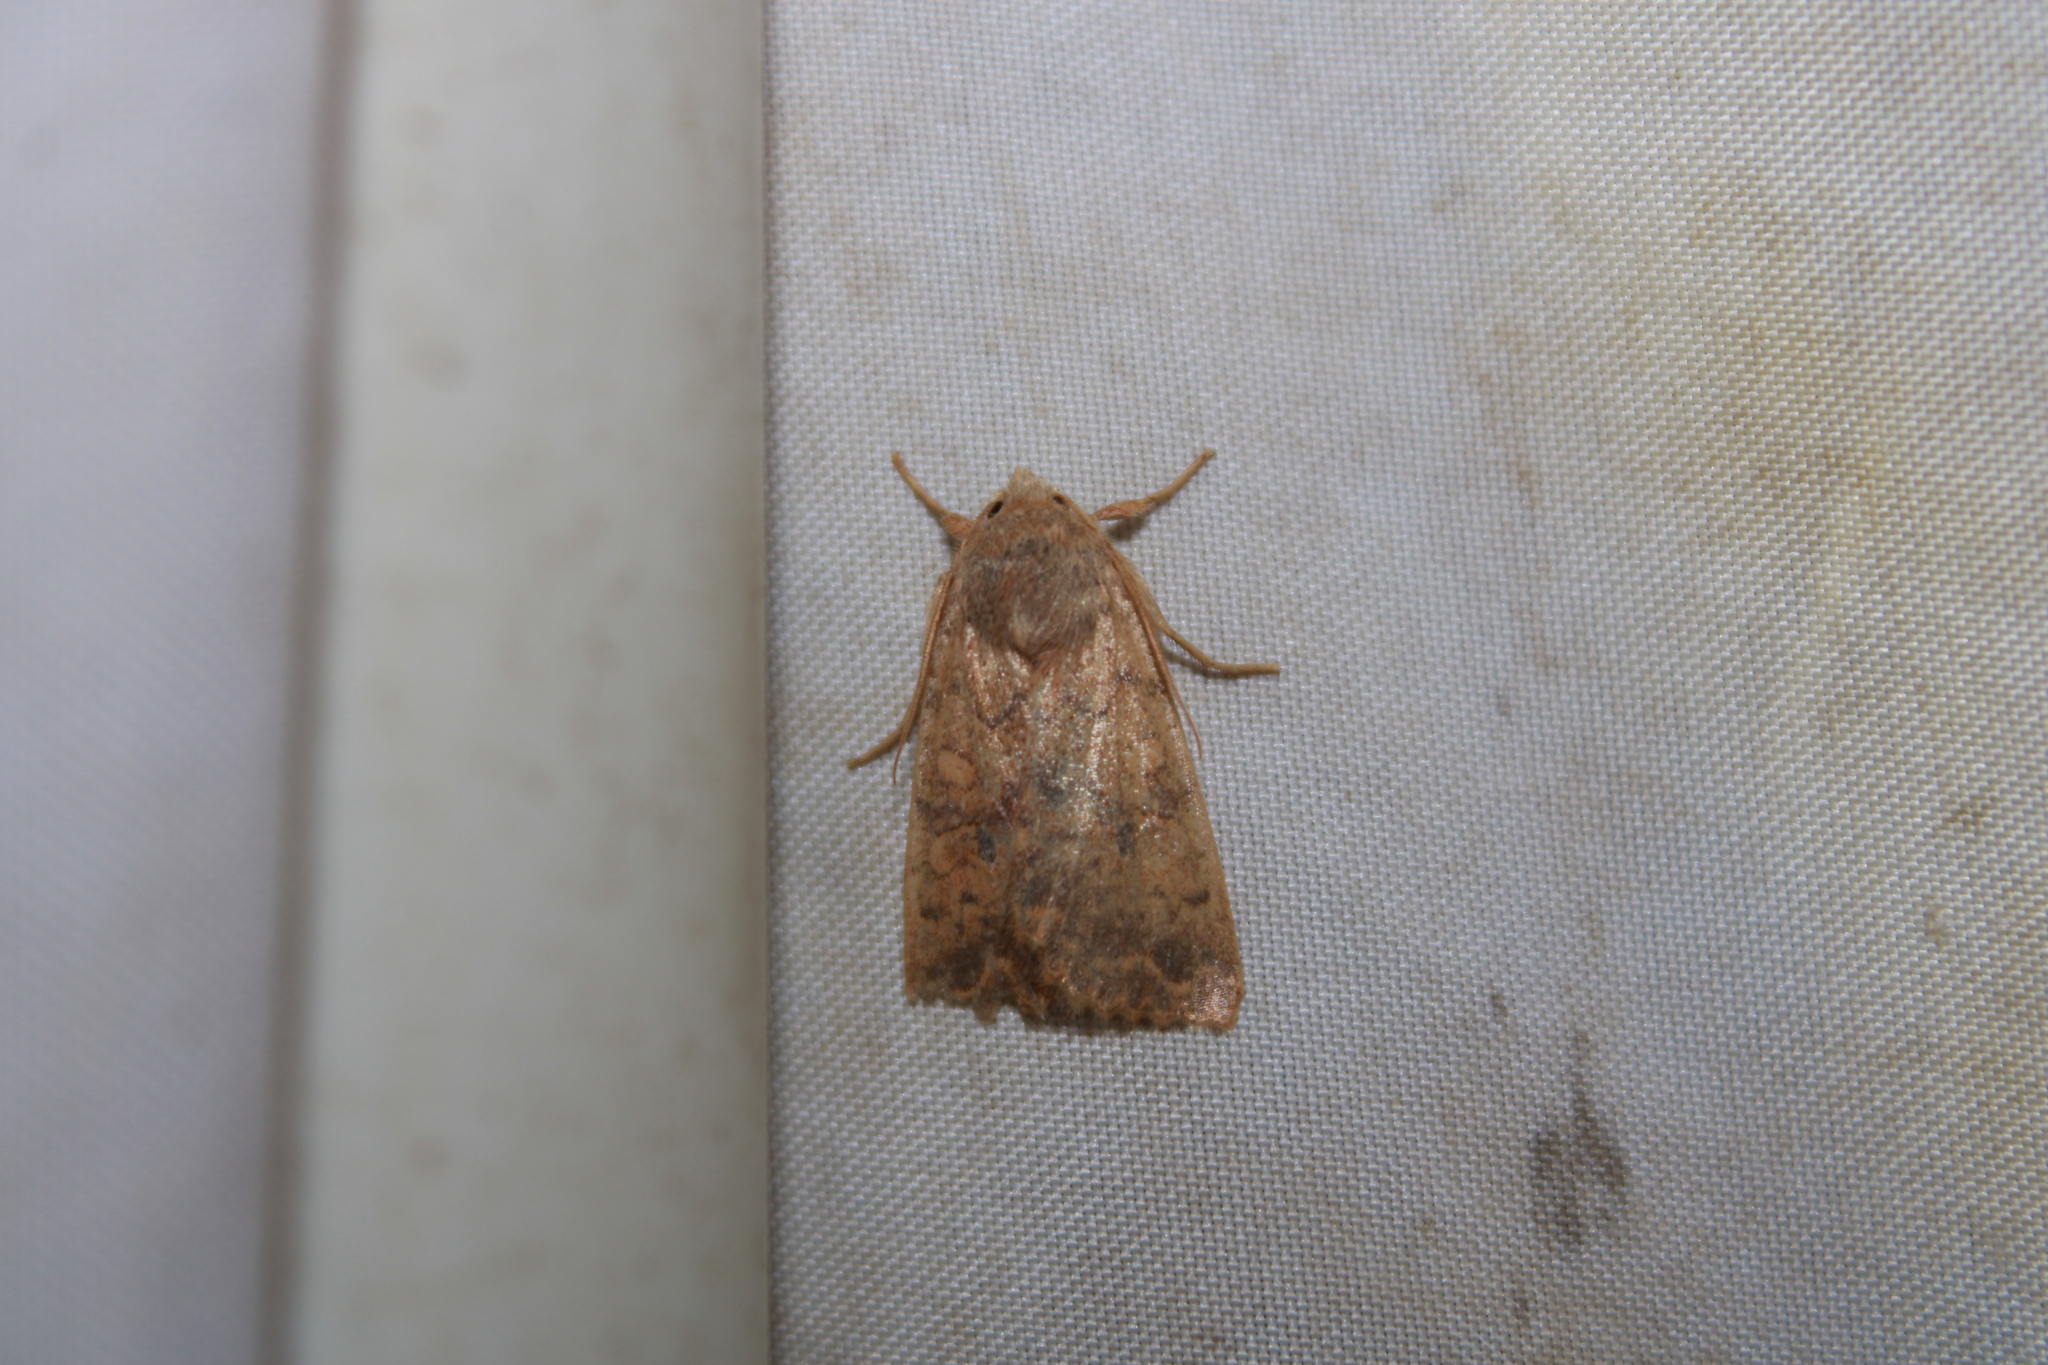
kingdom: Animalia
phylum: Arthropoda
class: Insecta
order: Lepidoptera
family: Noctuidae
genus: Agrochola
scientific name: Agrochola bicolorago
